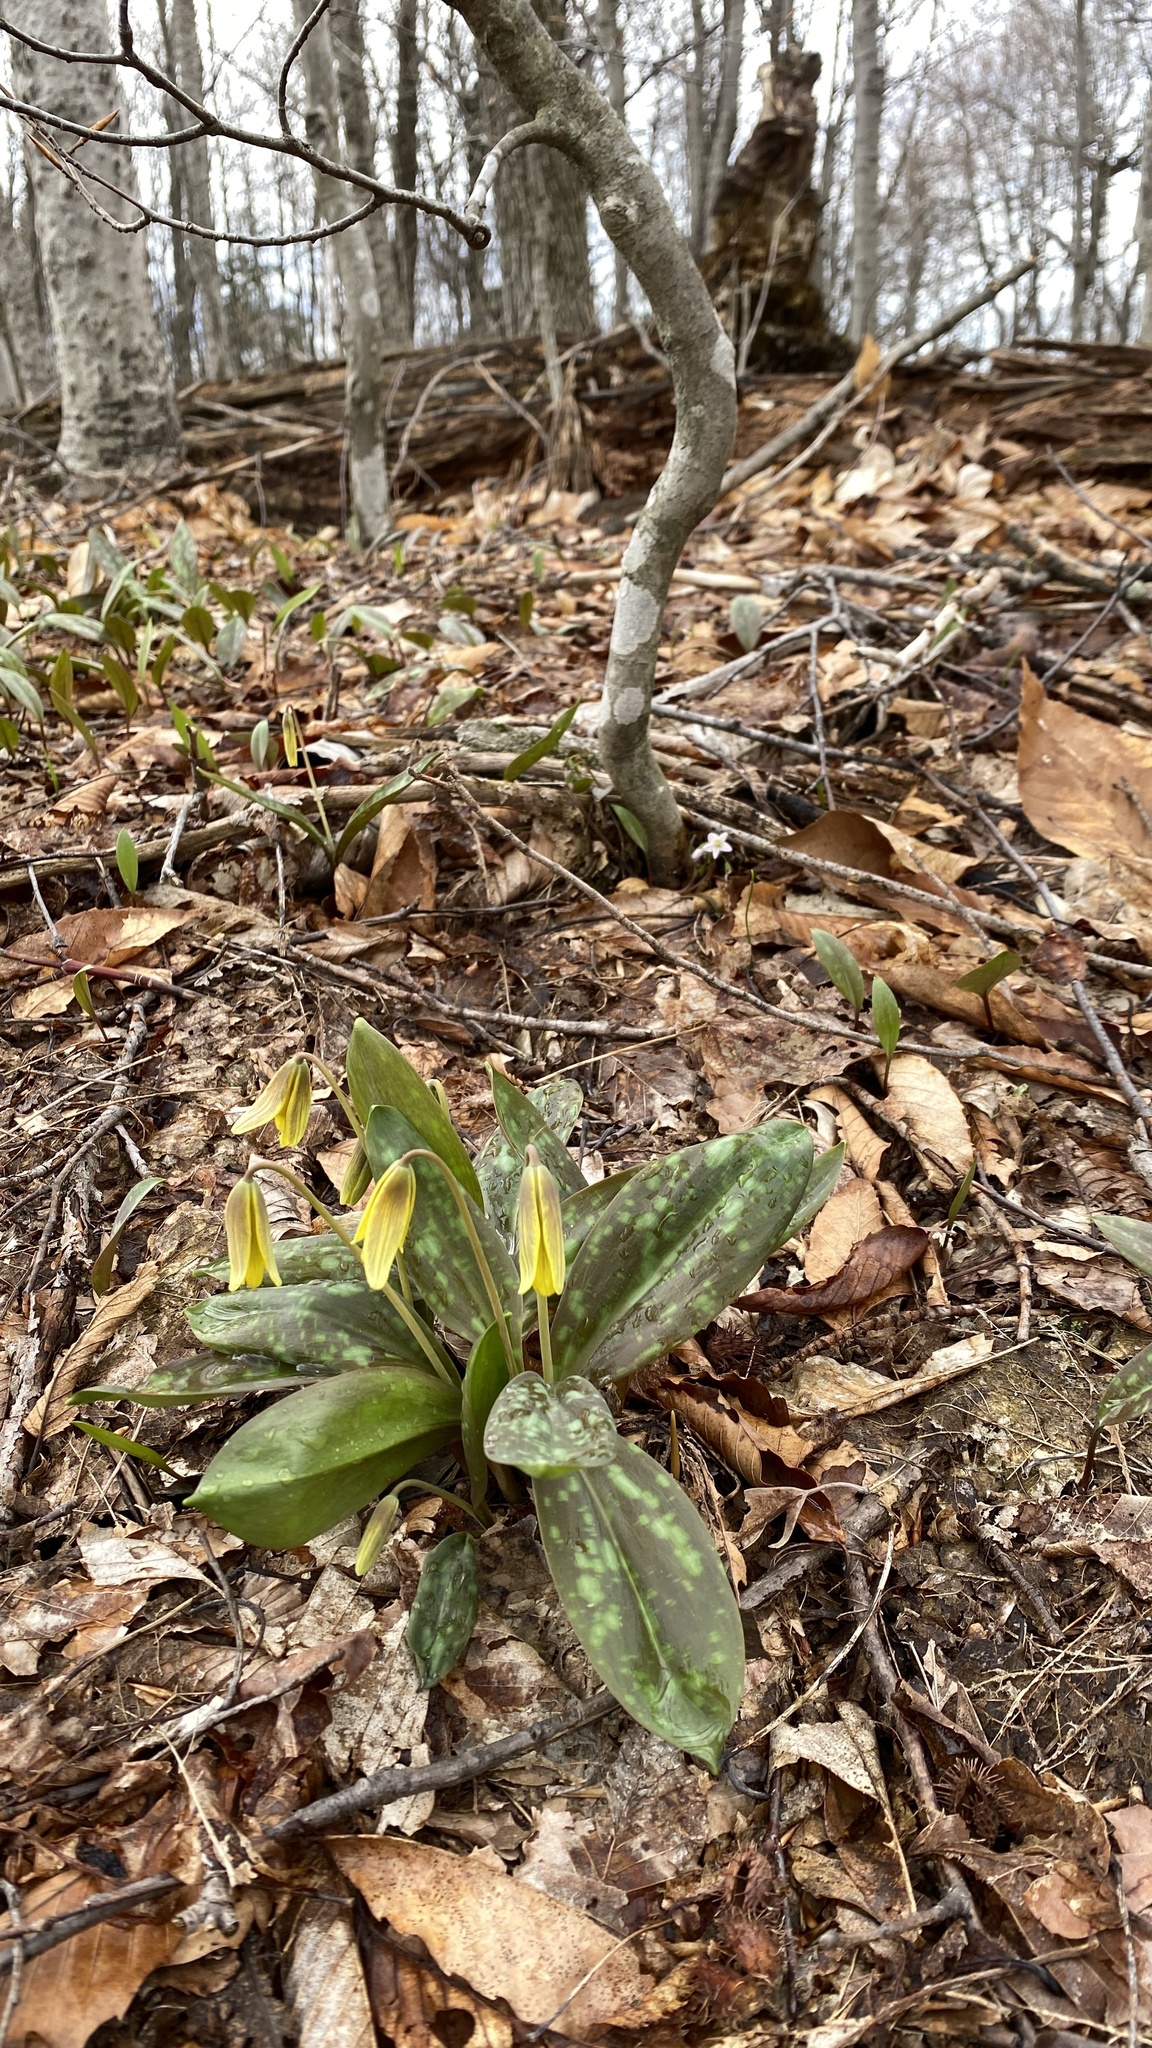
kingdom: Plantae
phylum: Tracheophyta
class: Liliopsida
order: Liliales
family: Liliaceae
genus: Erythronium
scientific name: Erythronium americanum
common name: Yellow adder's-tongue
